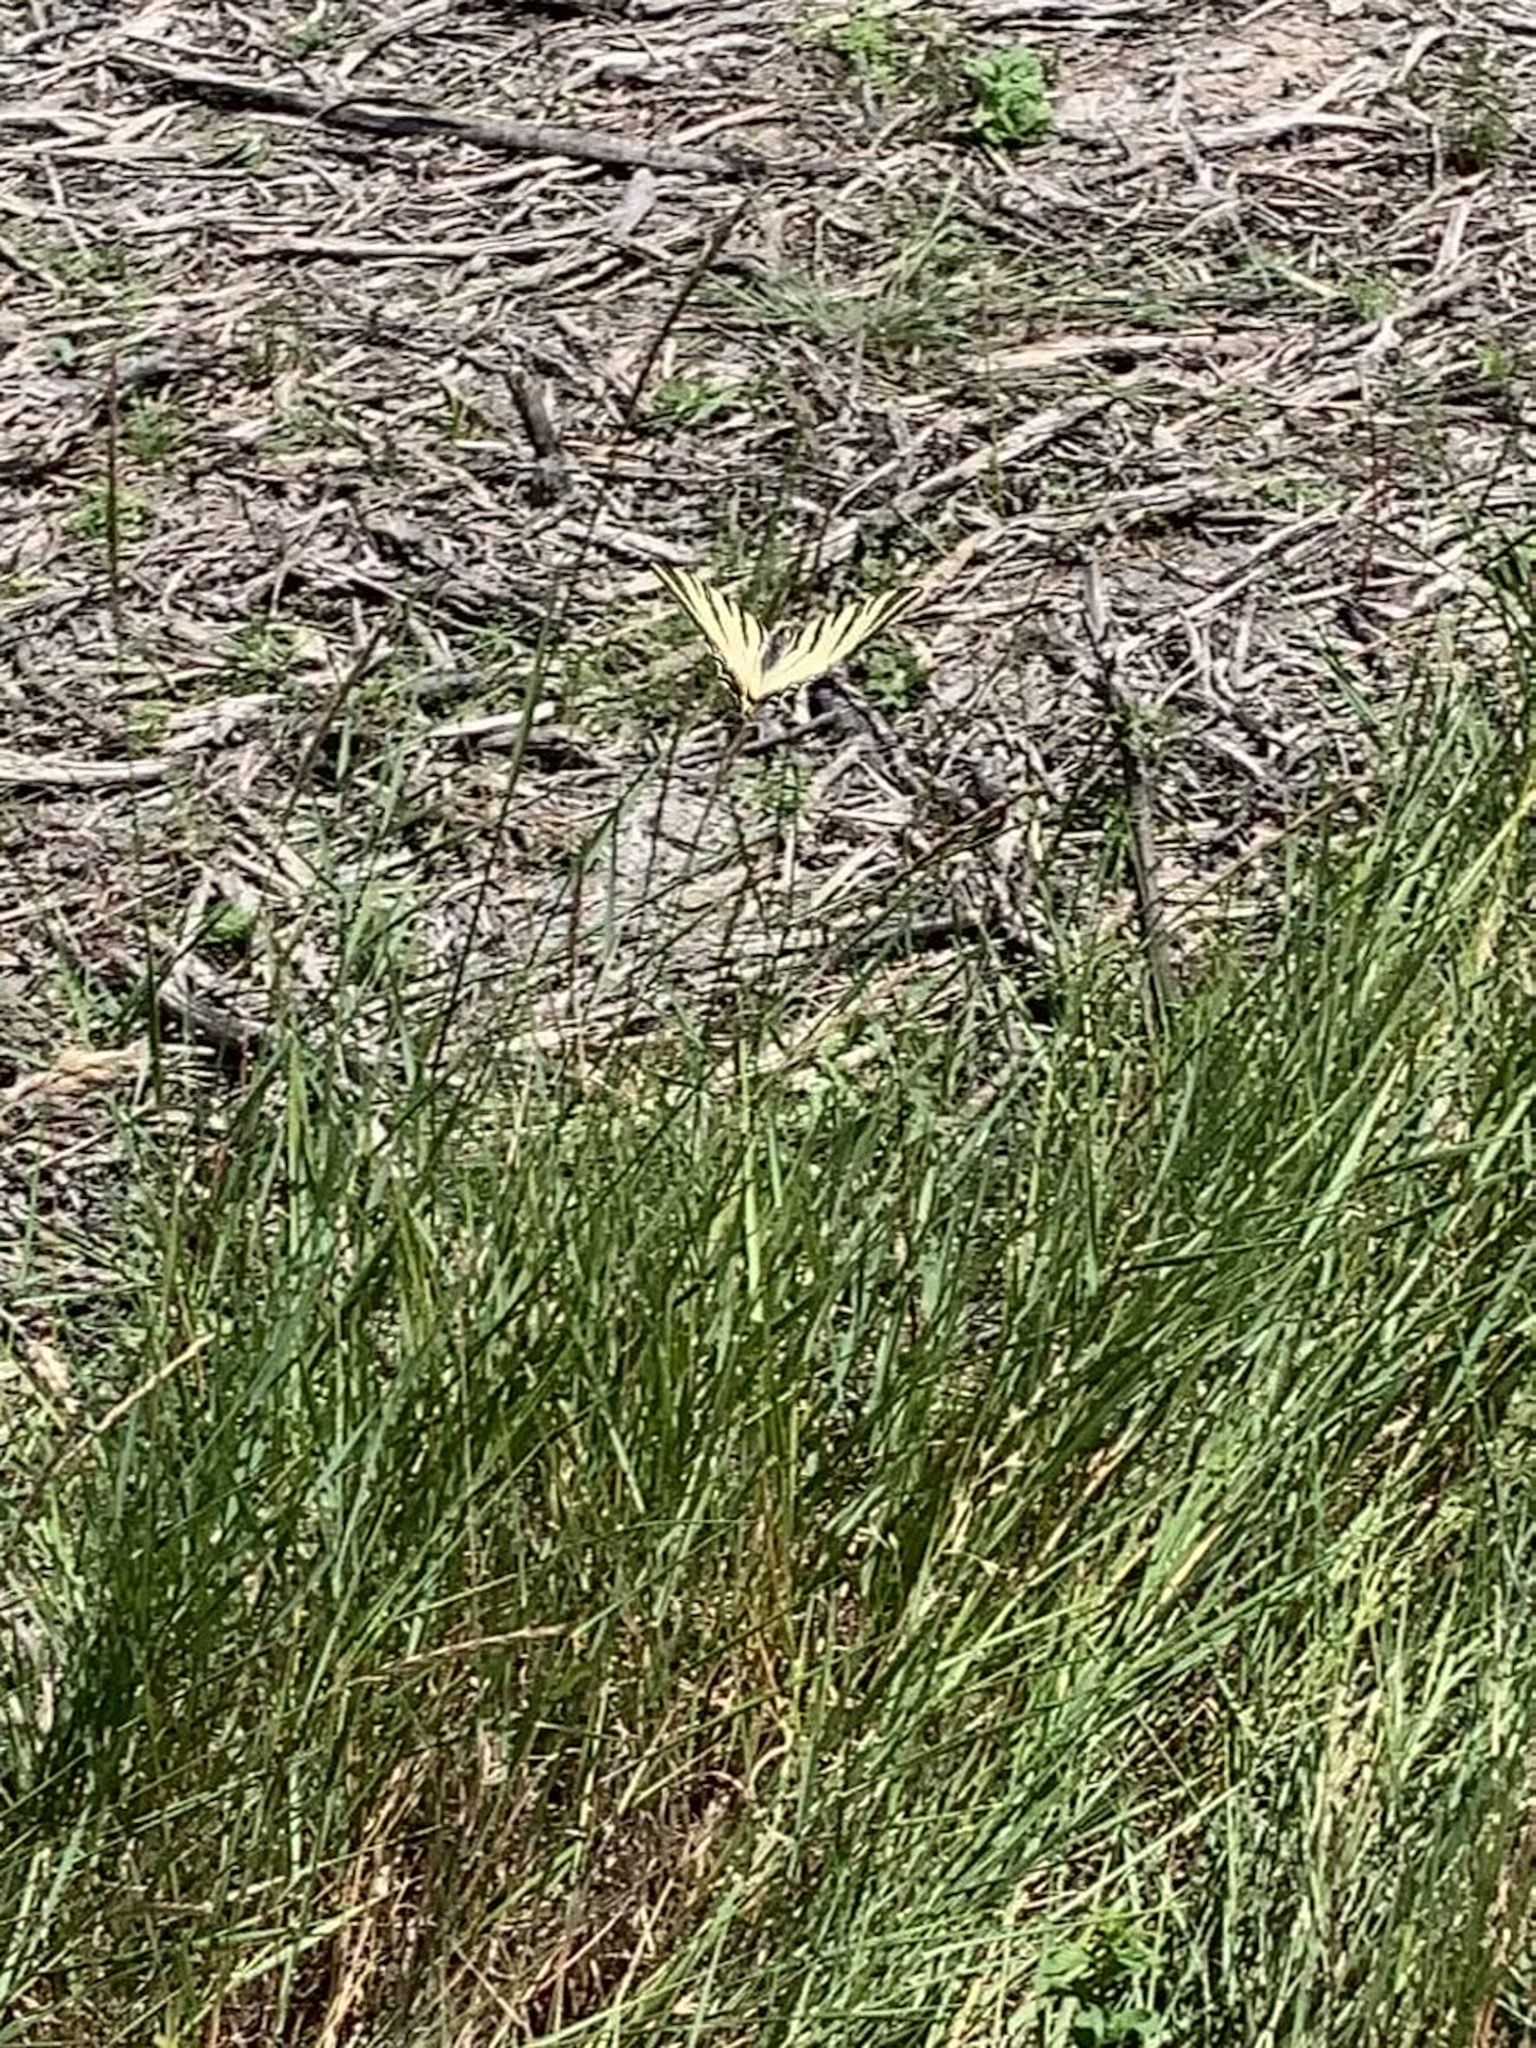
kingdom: Animalia
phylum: Arthropoda
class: Insecta
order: Lepidoptera
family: Papilionidae
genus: Iphiclides
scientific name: Iphiclides podalirius
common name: Scarce swallowtail
